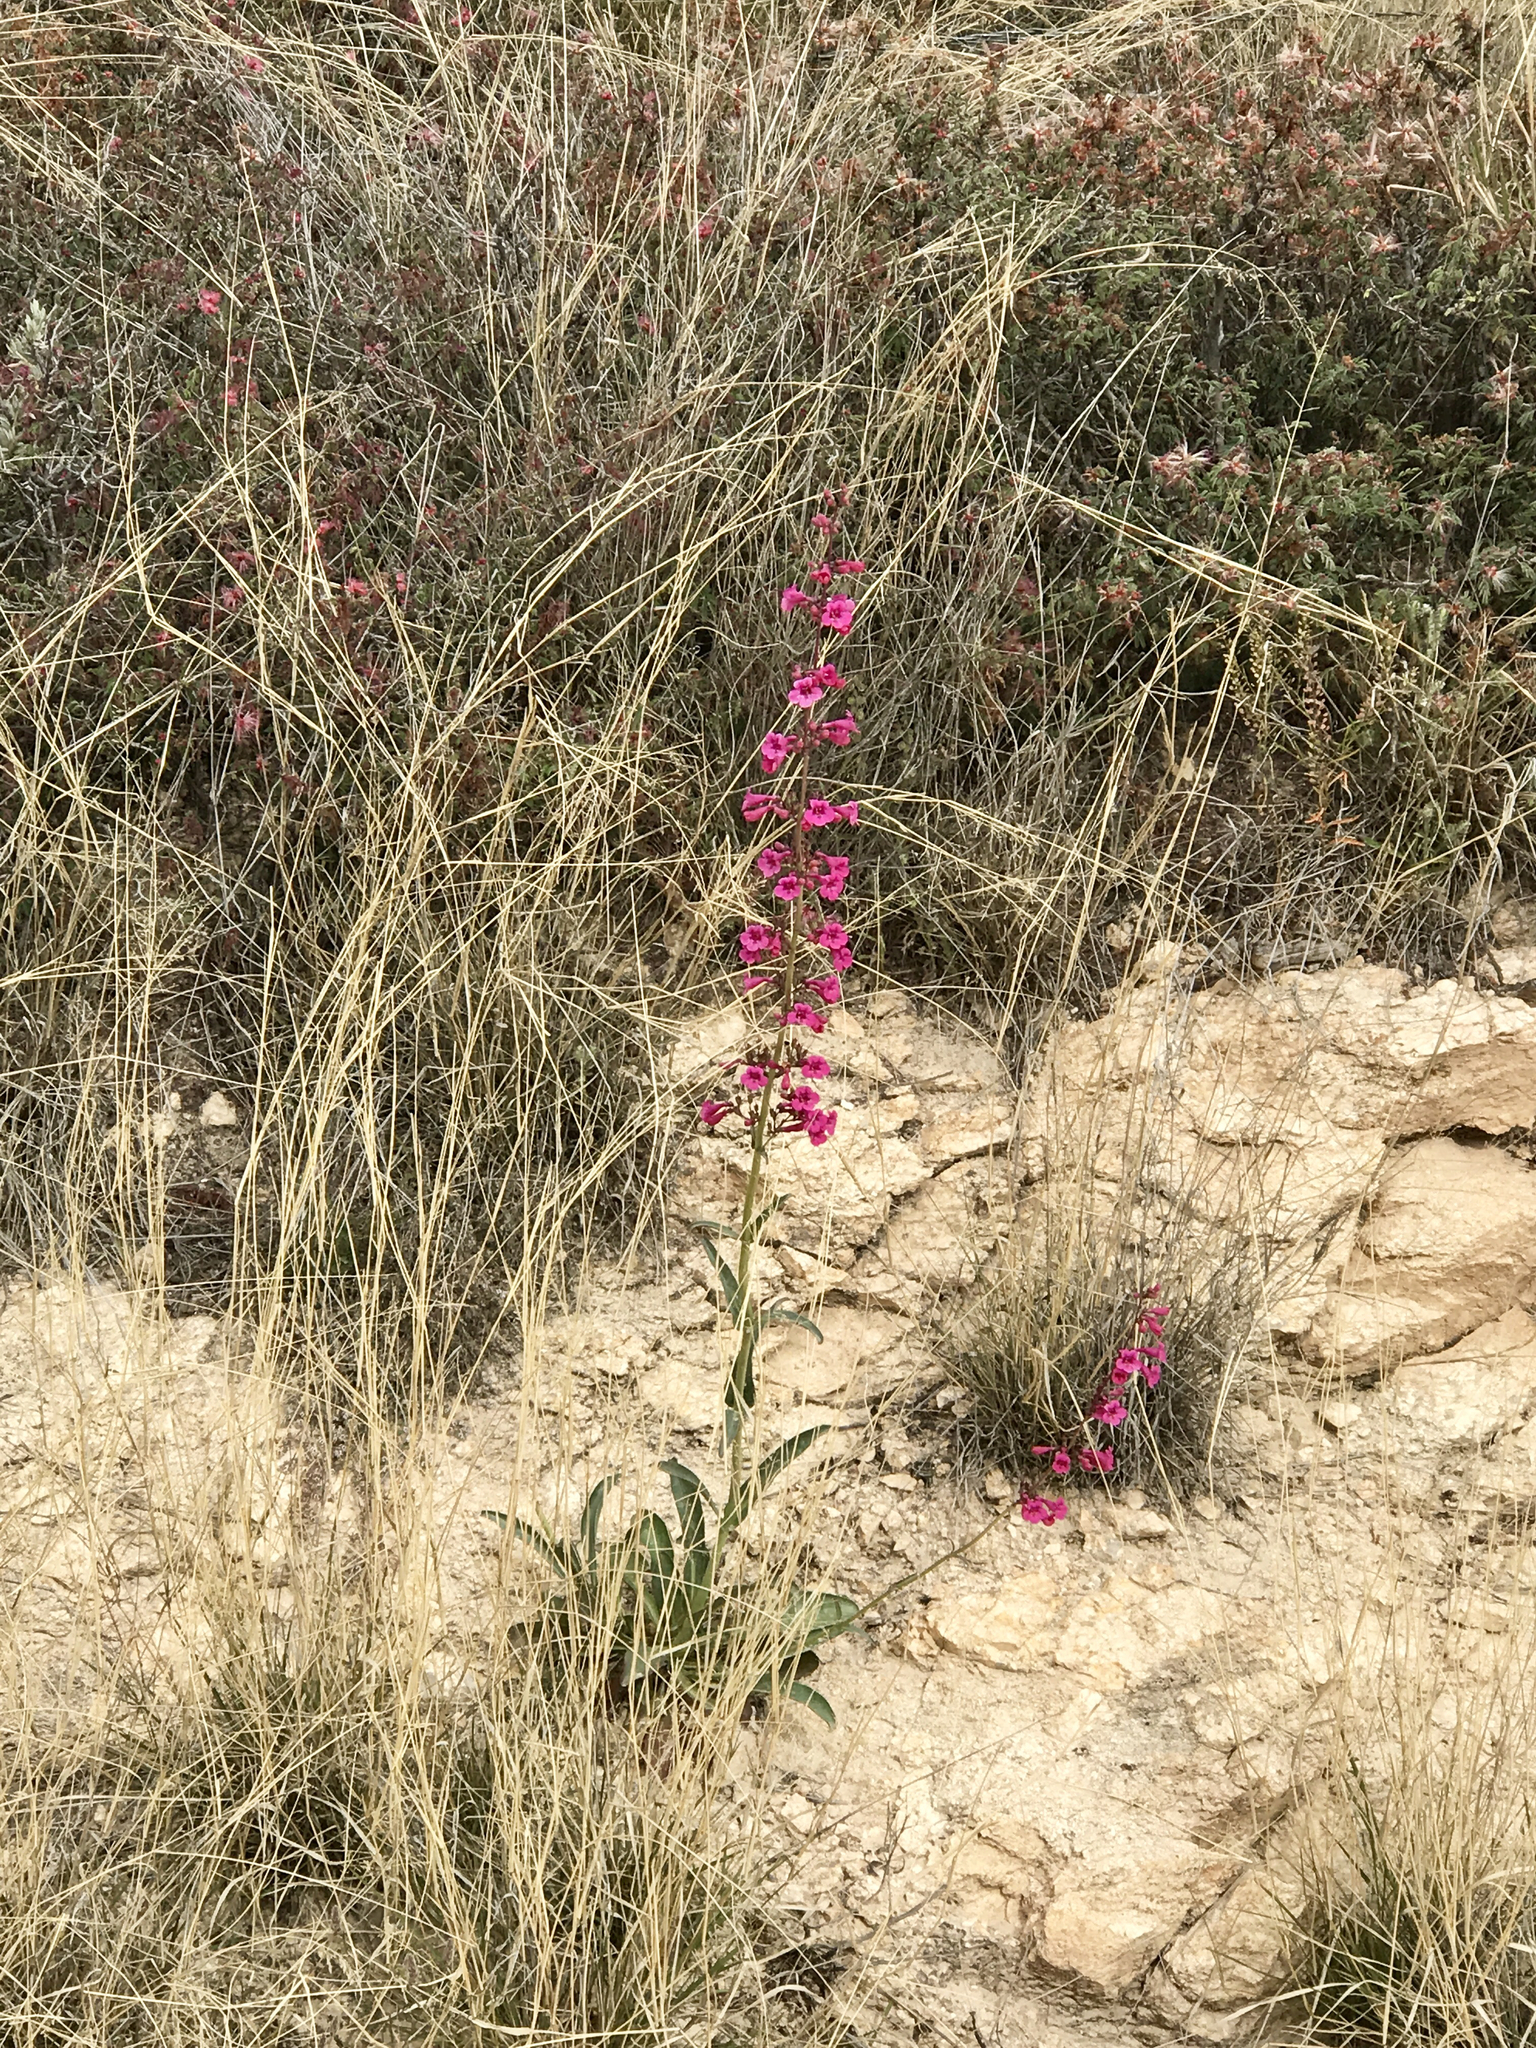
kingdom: Plantae
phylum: Tracheophyta
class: Magnoliopsida
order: Lamiales
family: Plantaginaceae
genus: Penstemon
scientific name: Penstemon parryi
